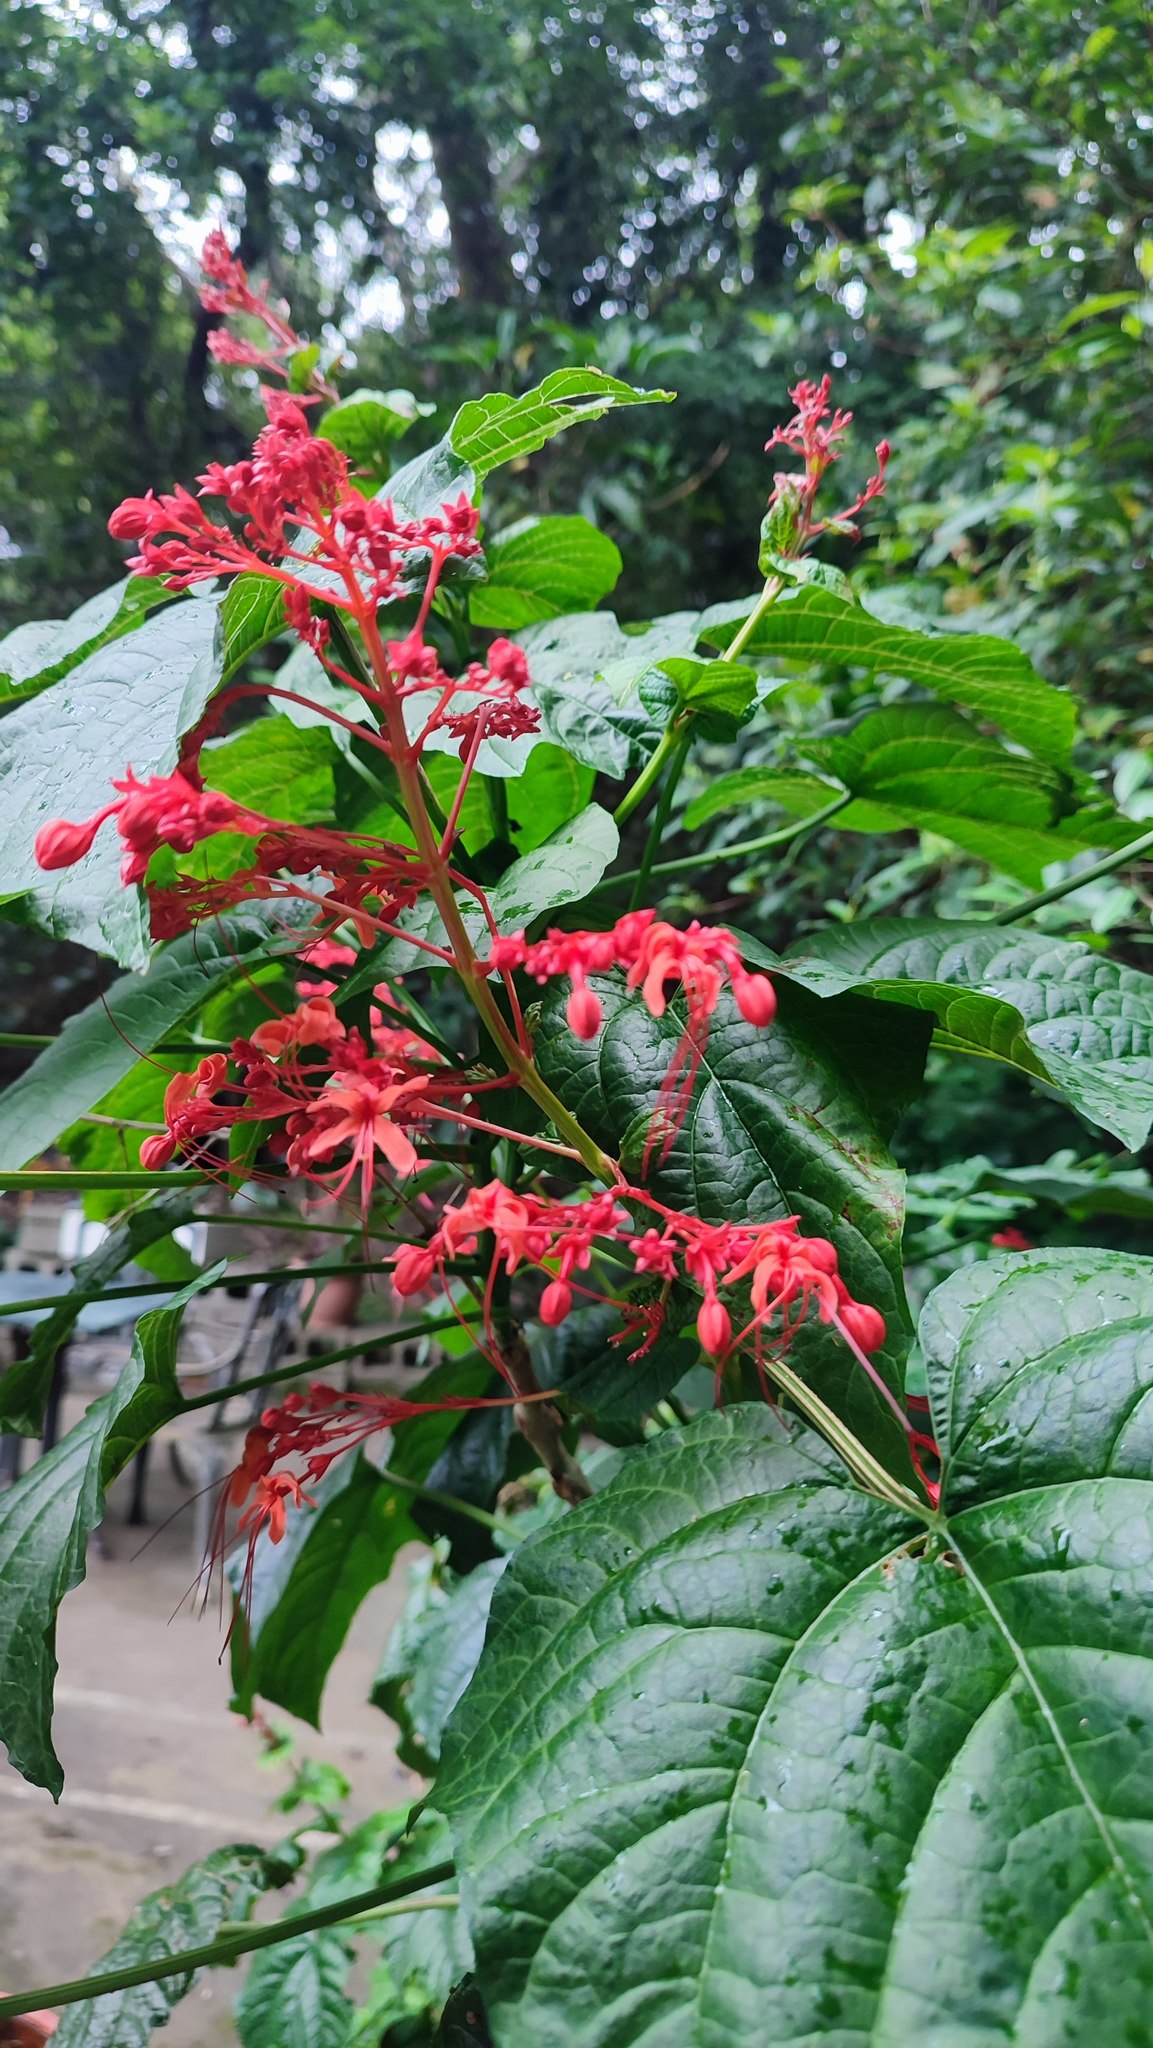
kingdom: Plantae
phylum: Tracheophyta
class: Magnoliopsida
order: Lamiales
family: Lamiaceae
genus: Clerodendrum
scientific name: Clerodendrum japonicum
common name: Japanese glorybower
